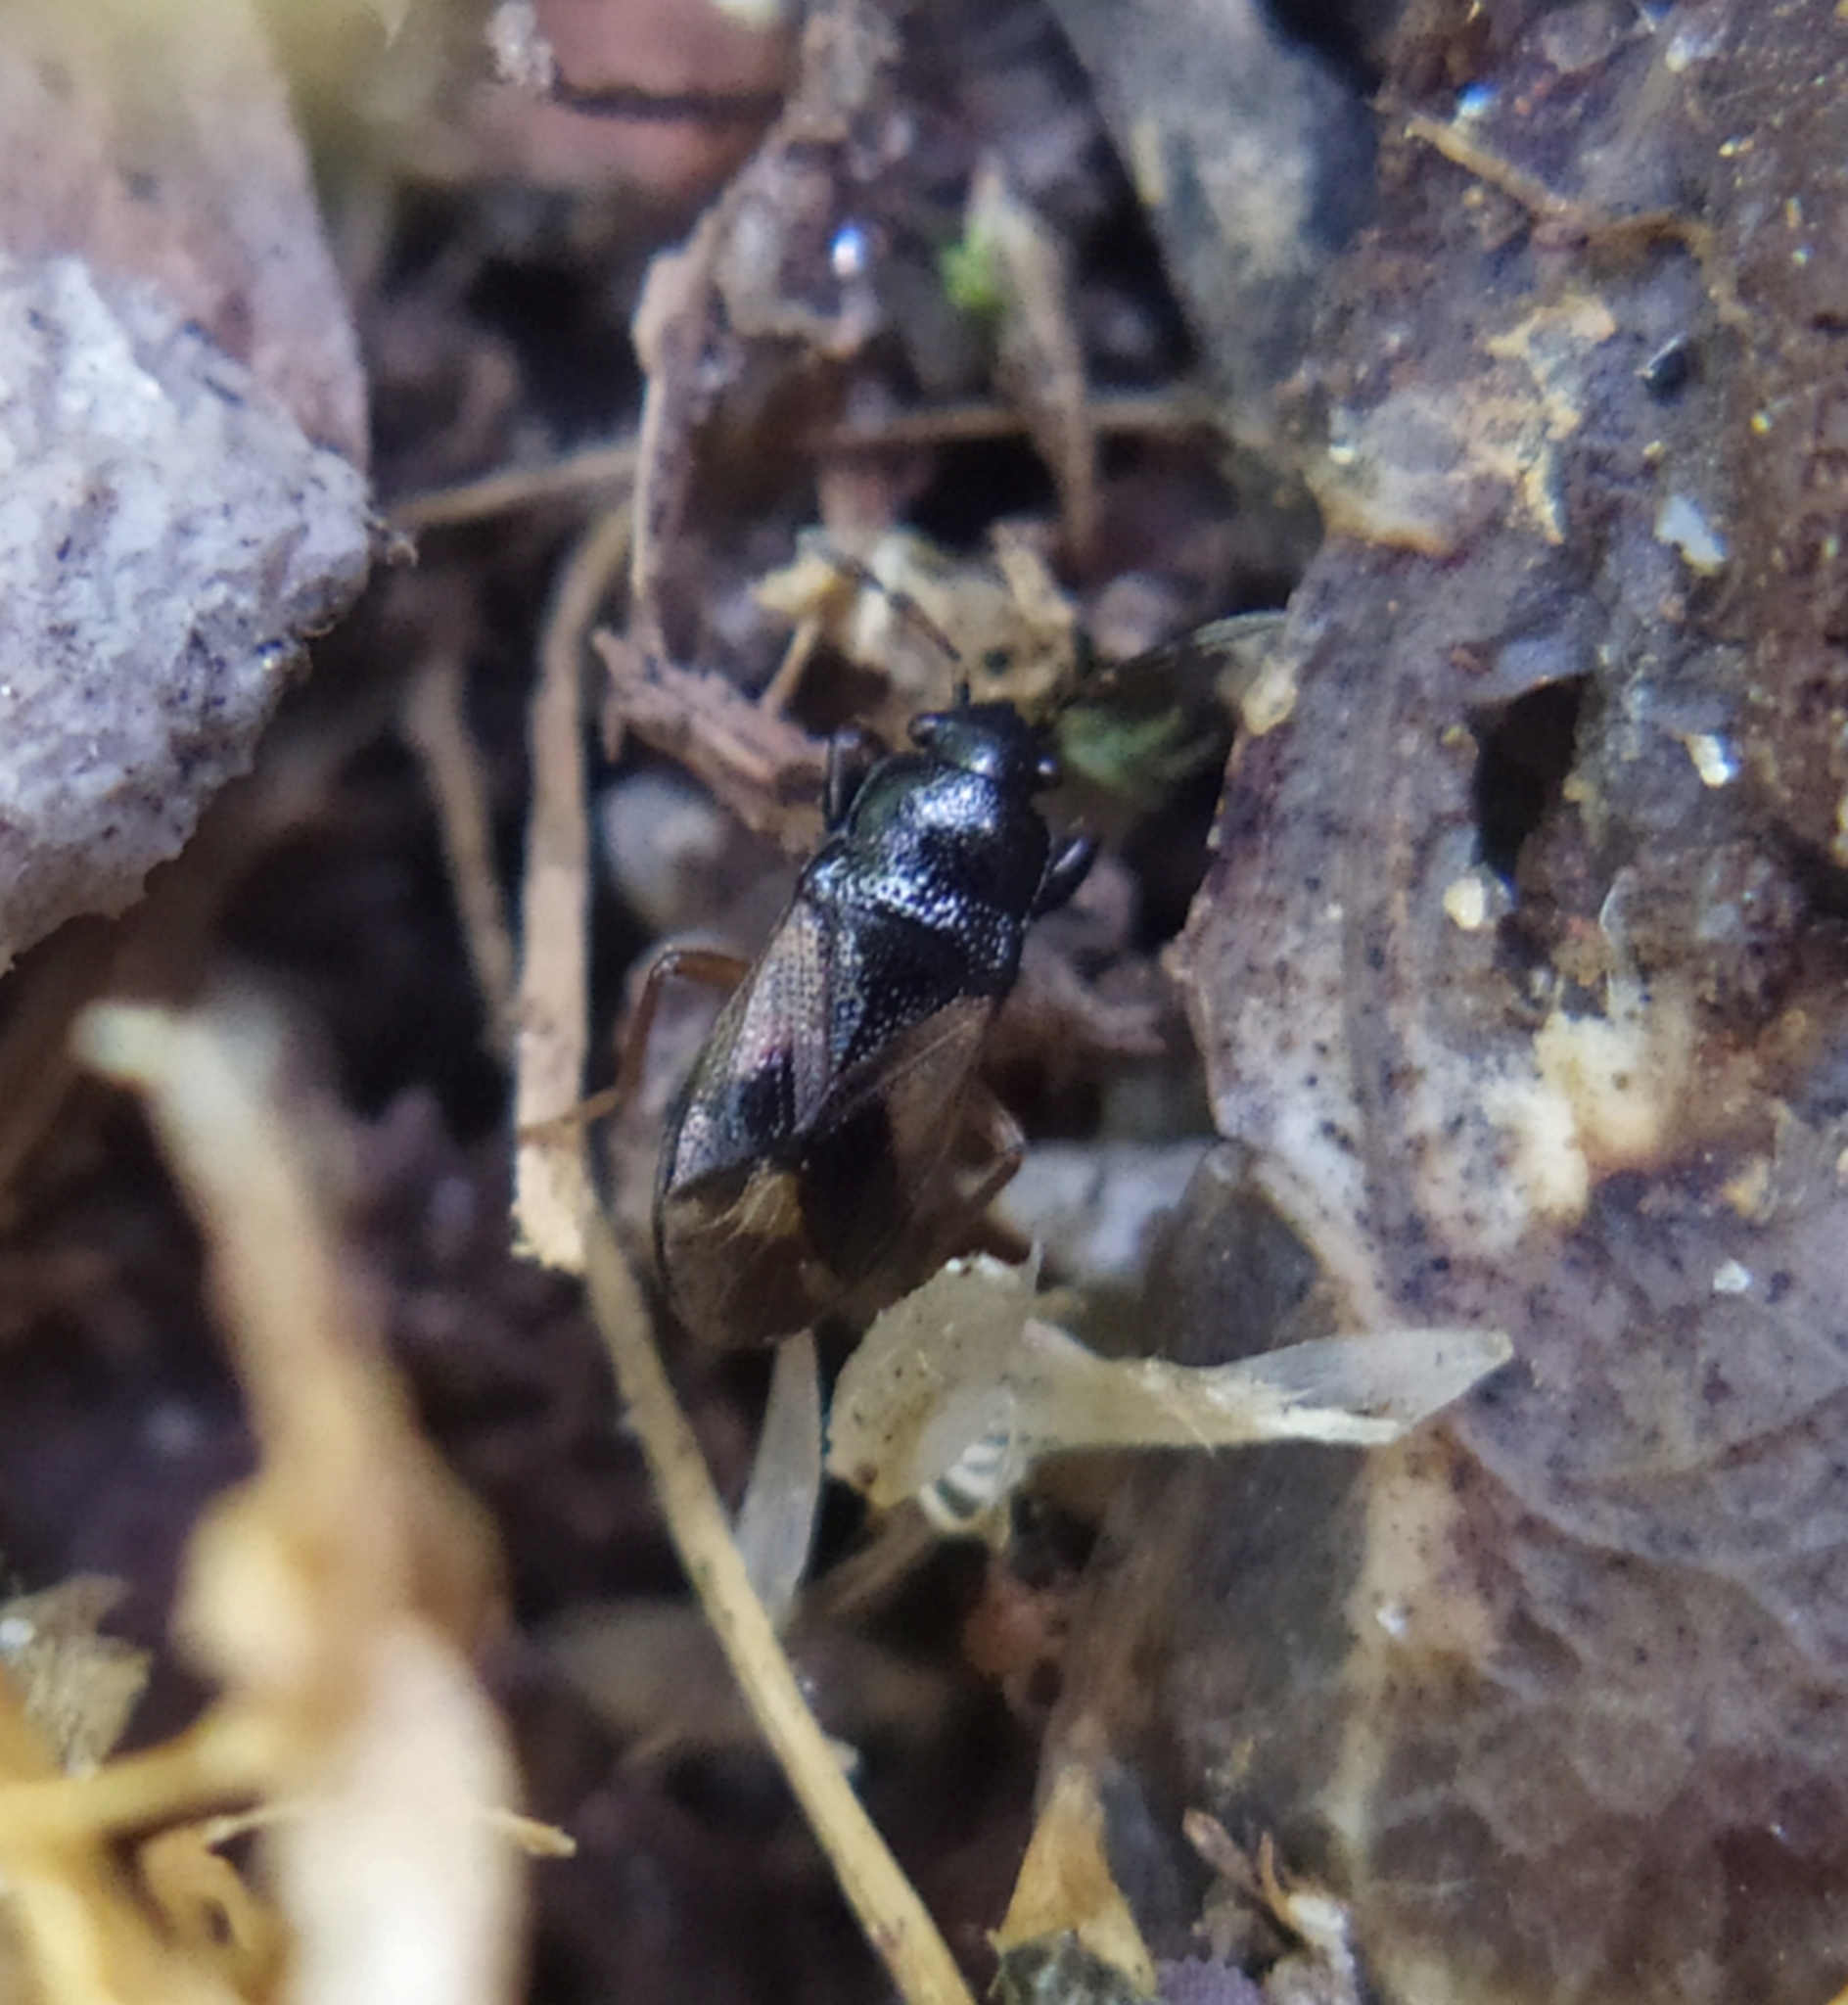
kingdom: Animalia
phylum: Arthropoda
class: Insecta
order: Hemiptera
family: Rhyparochromidae
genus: Megalonotus
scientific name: Megalonotus praetextatus
